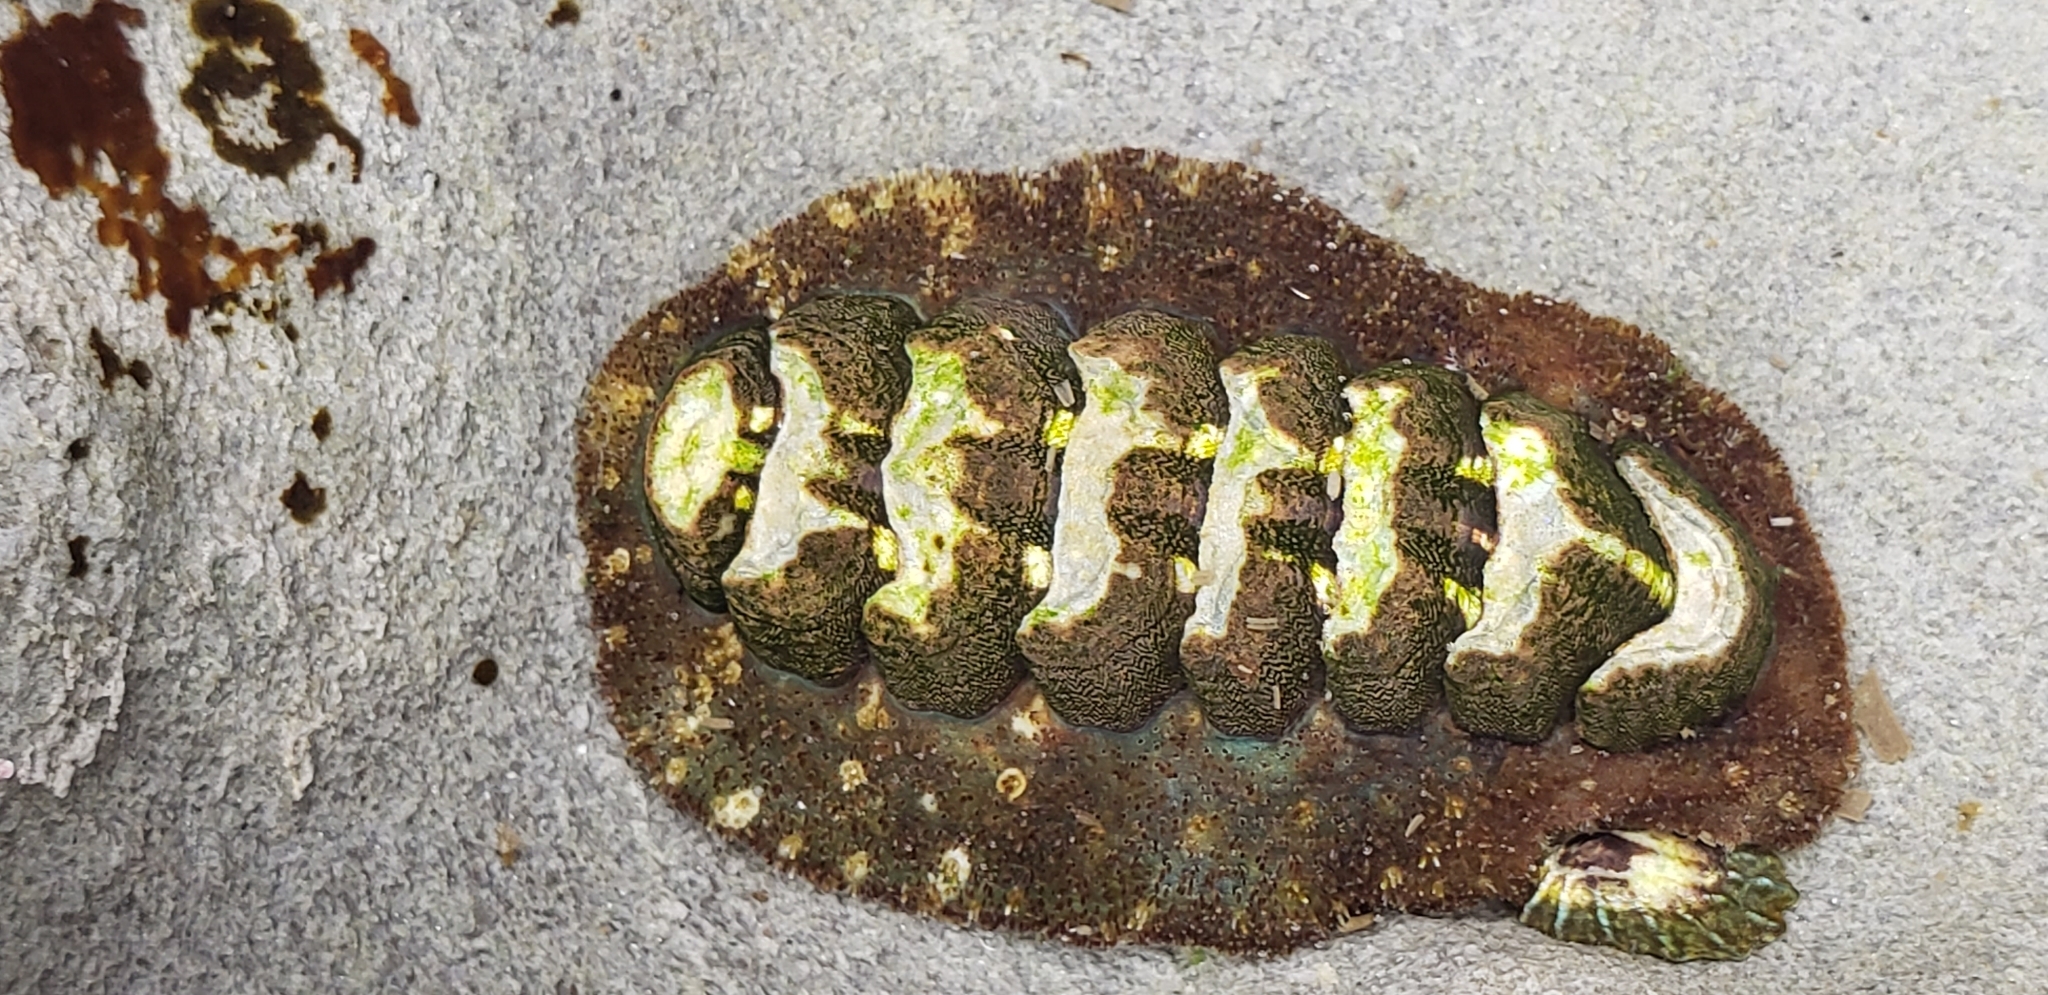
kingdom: Animalia
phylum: Mollusca
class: Polyplacophora
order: Chitonida
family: Tonicellidae
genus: Nuttallina
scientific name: Nuttallina californica
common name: California nuttall chiton
